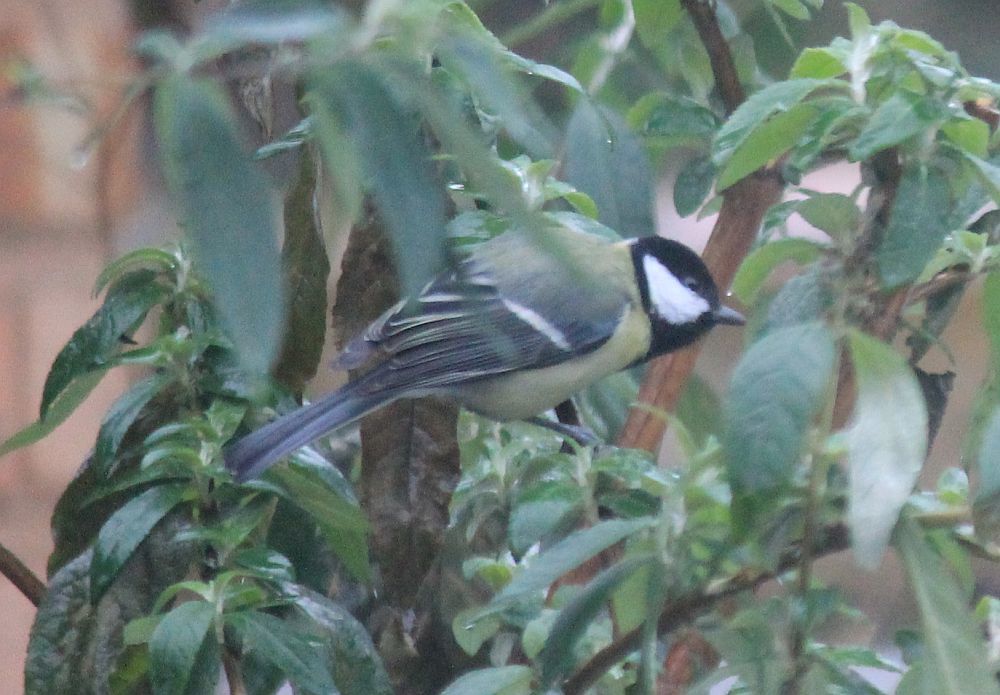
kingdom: Animalia
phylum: Chordata
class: Aves
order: Passeriformes
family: Paridae
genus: Parus
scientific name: Parus major
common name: Great tit
